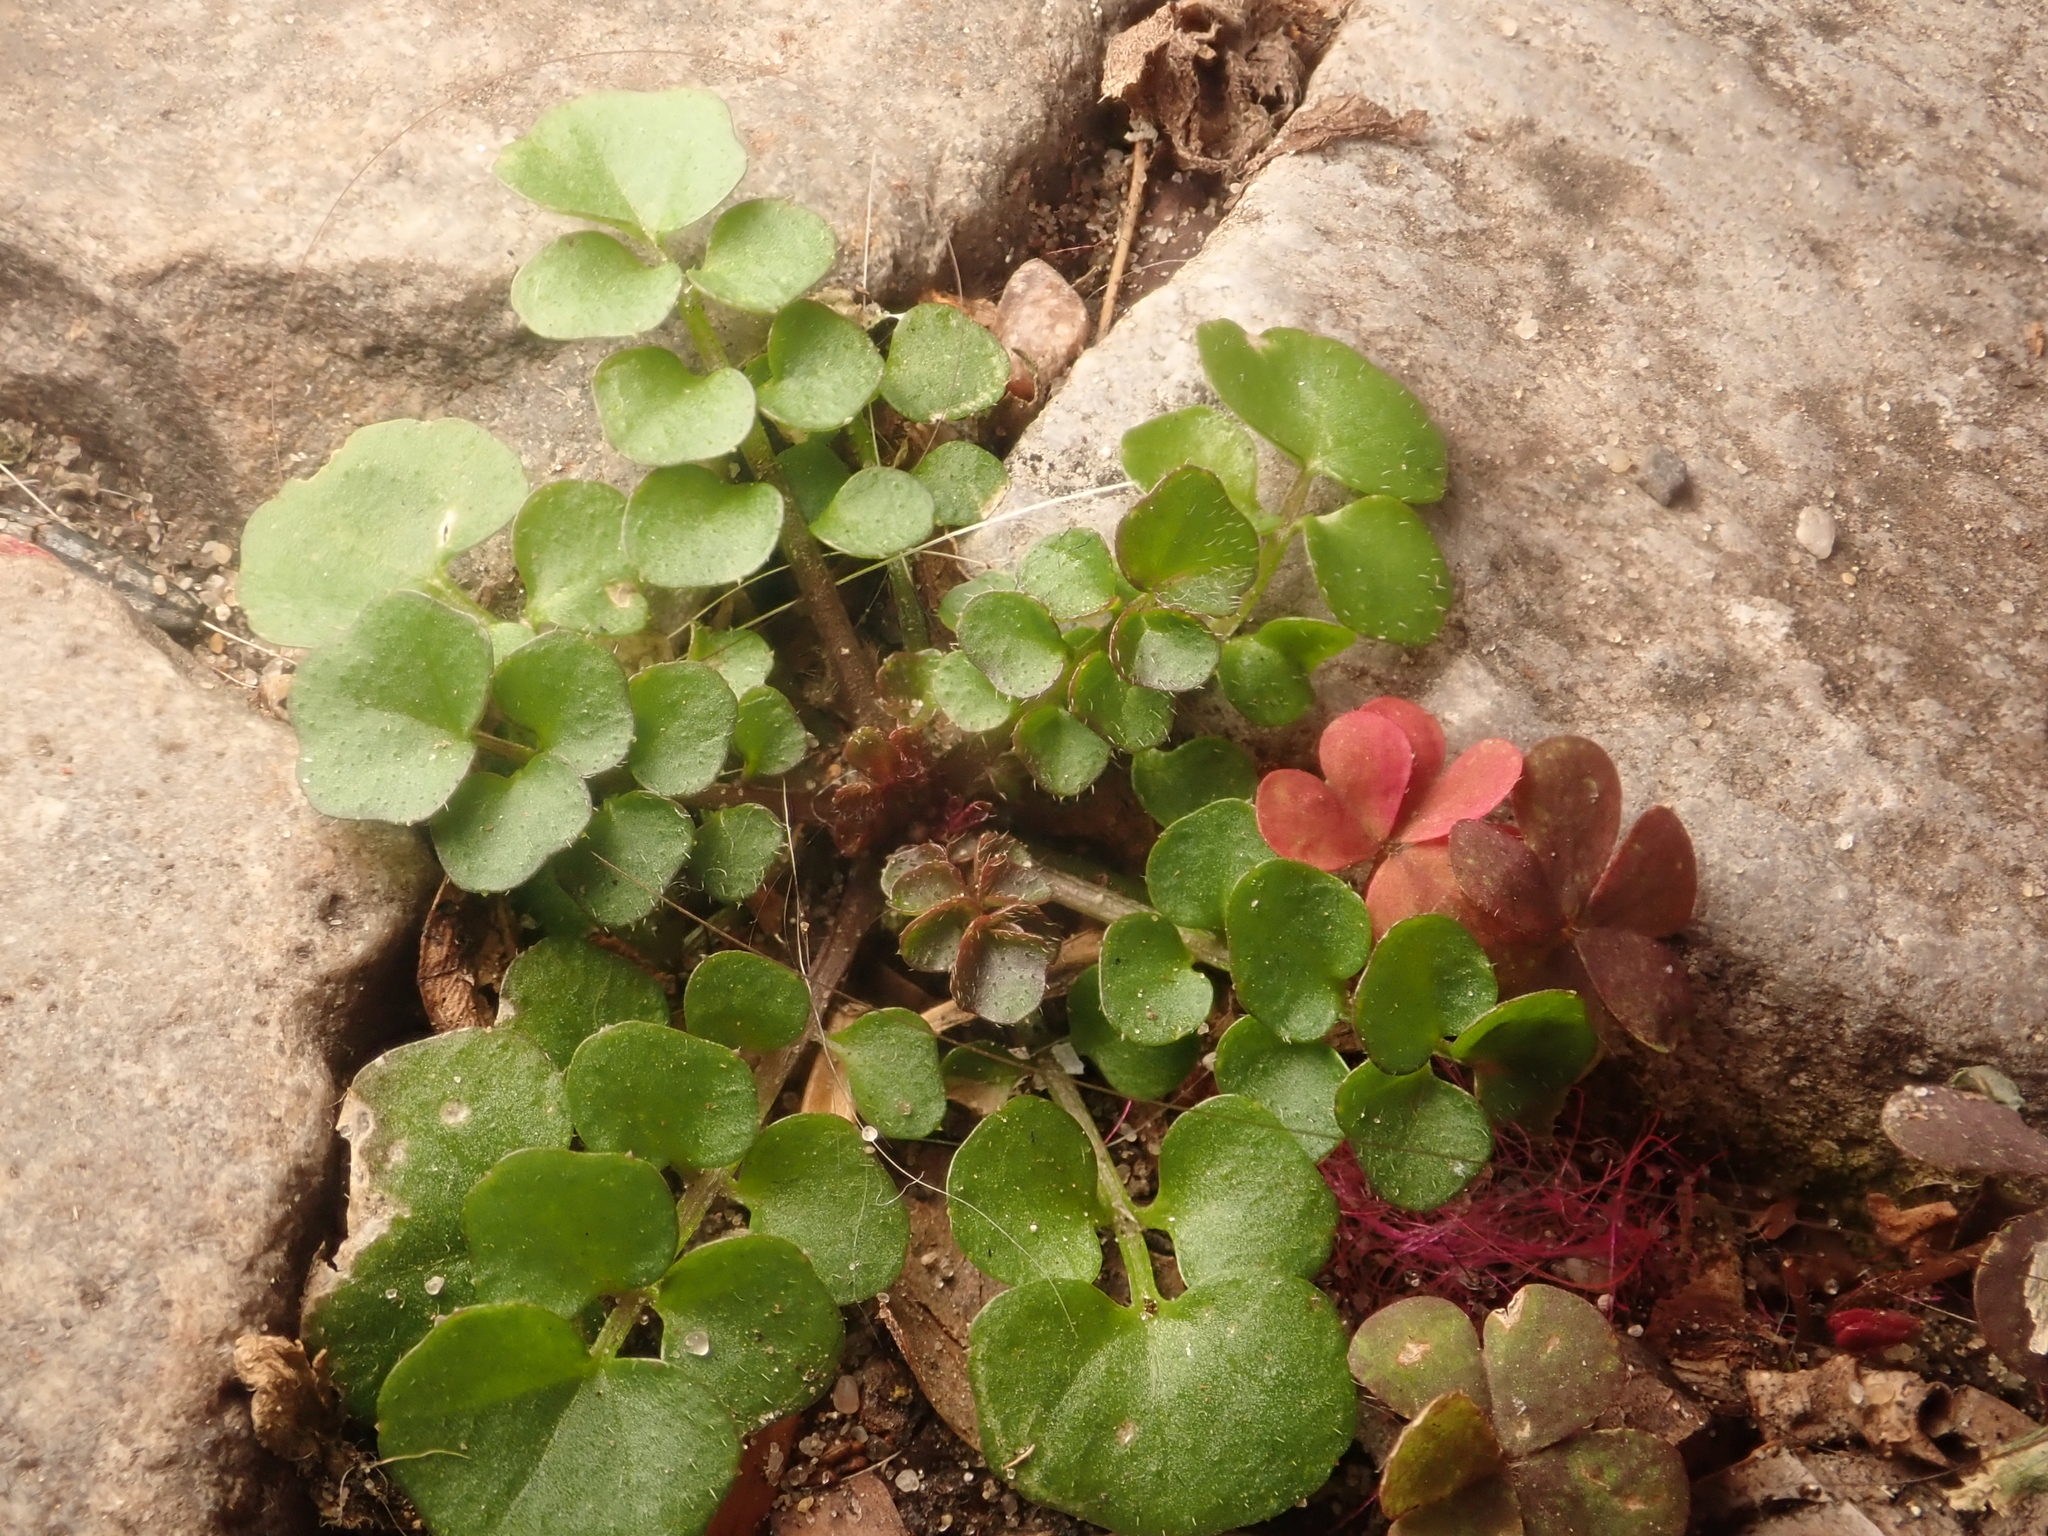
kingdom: Plantae
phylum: Tracheophyta
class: Magnoliopsida
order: Brassicales
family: Brassicaceae
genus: Cardamine
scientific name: Cardamine hirsuta
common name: Hairy bittercress
